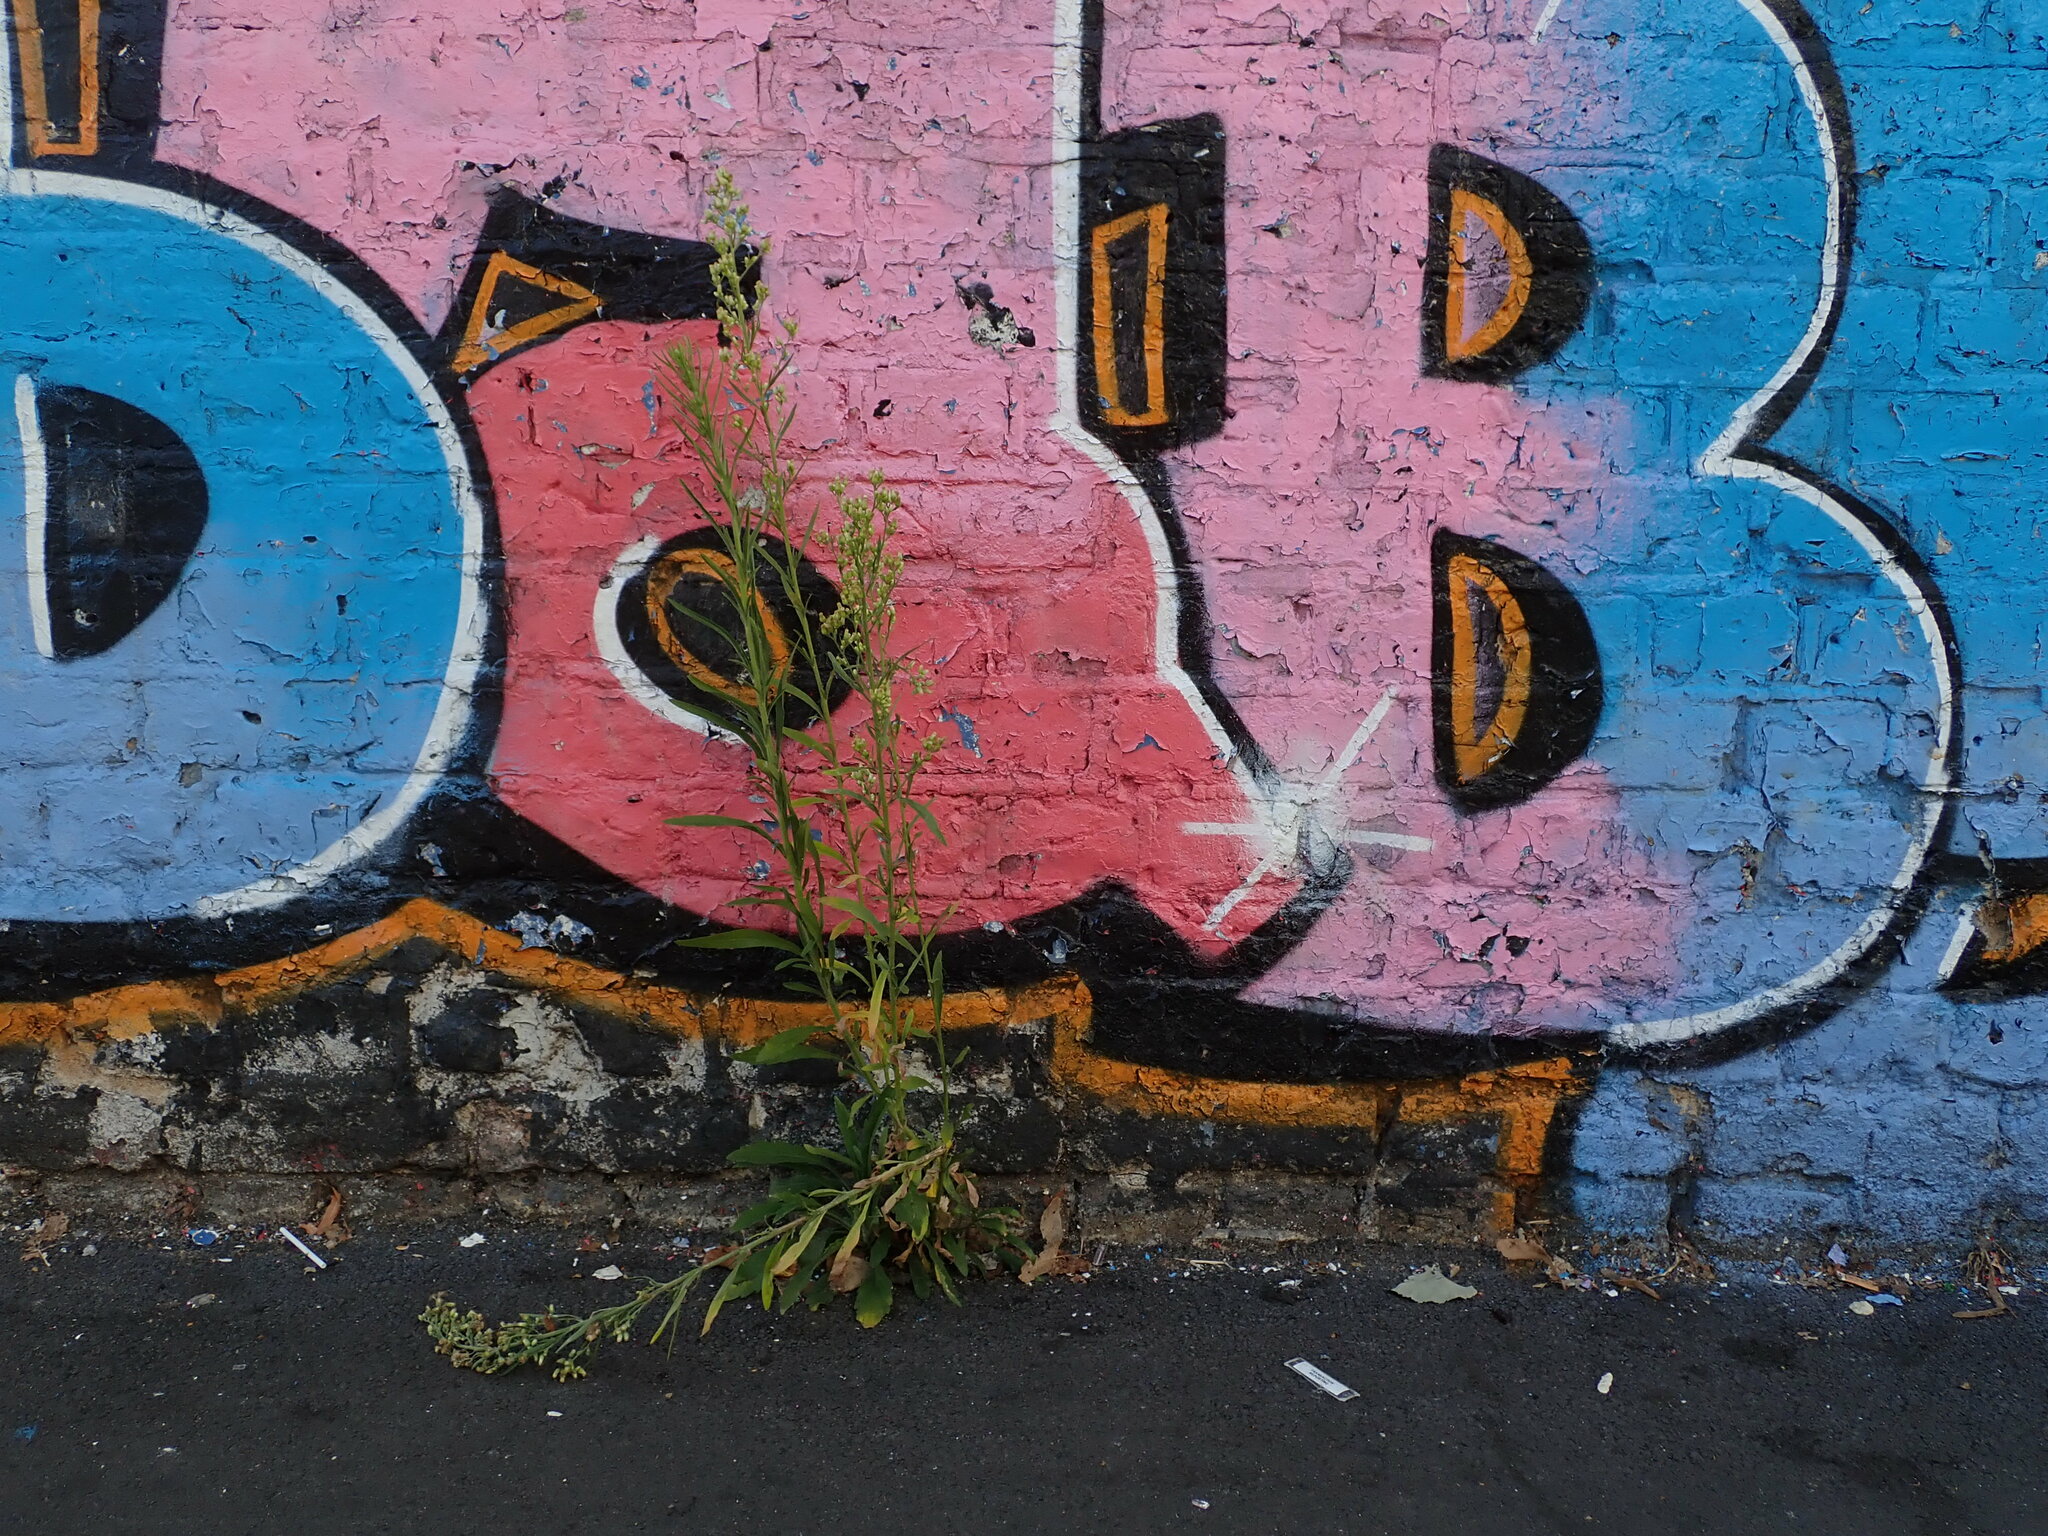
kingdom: Plantae
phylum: Tracheophyta
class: Magnoliopsida
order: Asterales
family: Asteraceae
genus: Erigeron
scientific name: Erigeron sumatrensis
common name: Daisy
